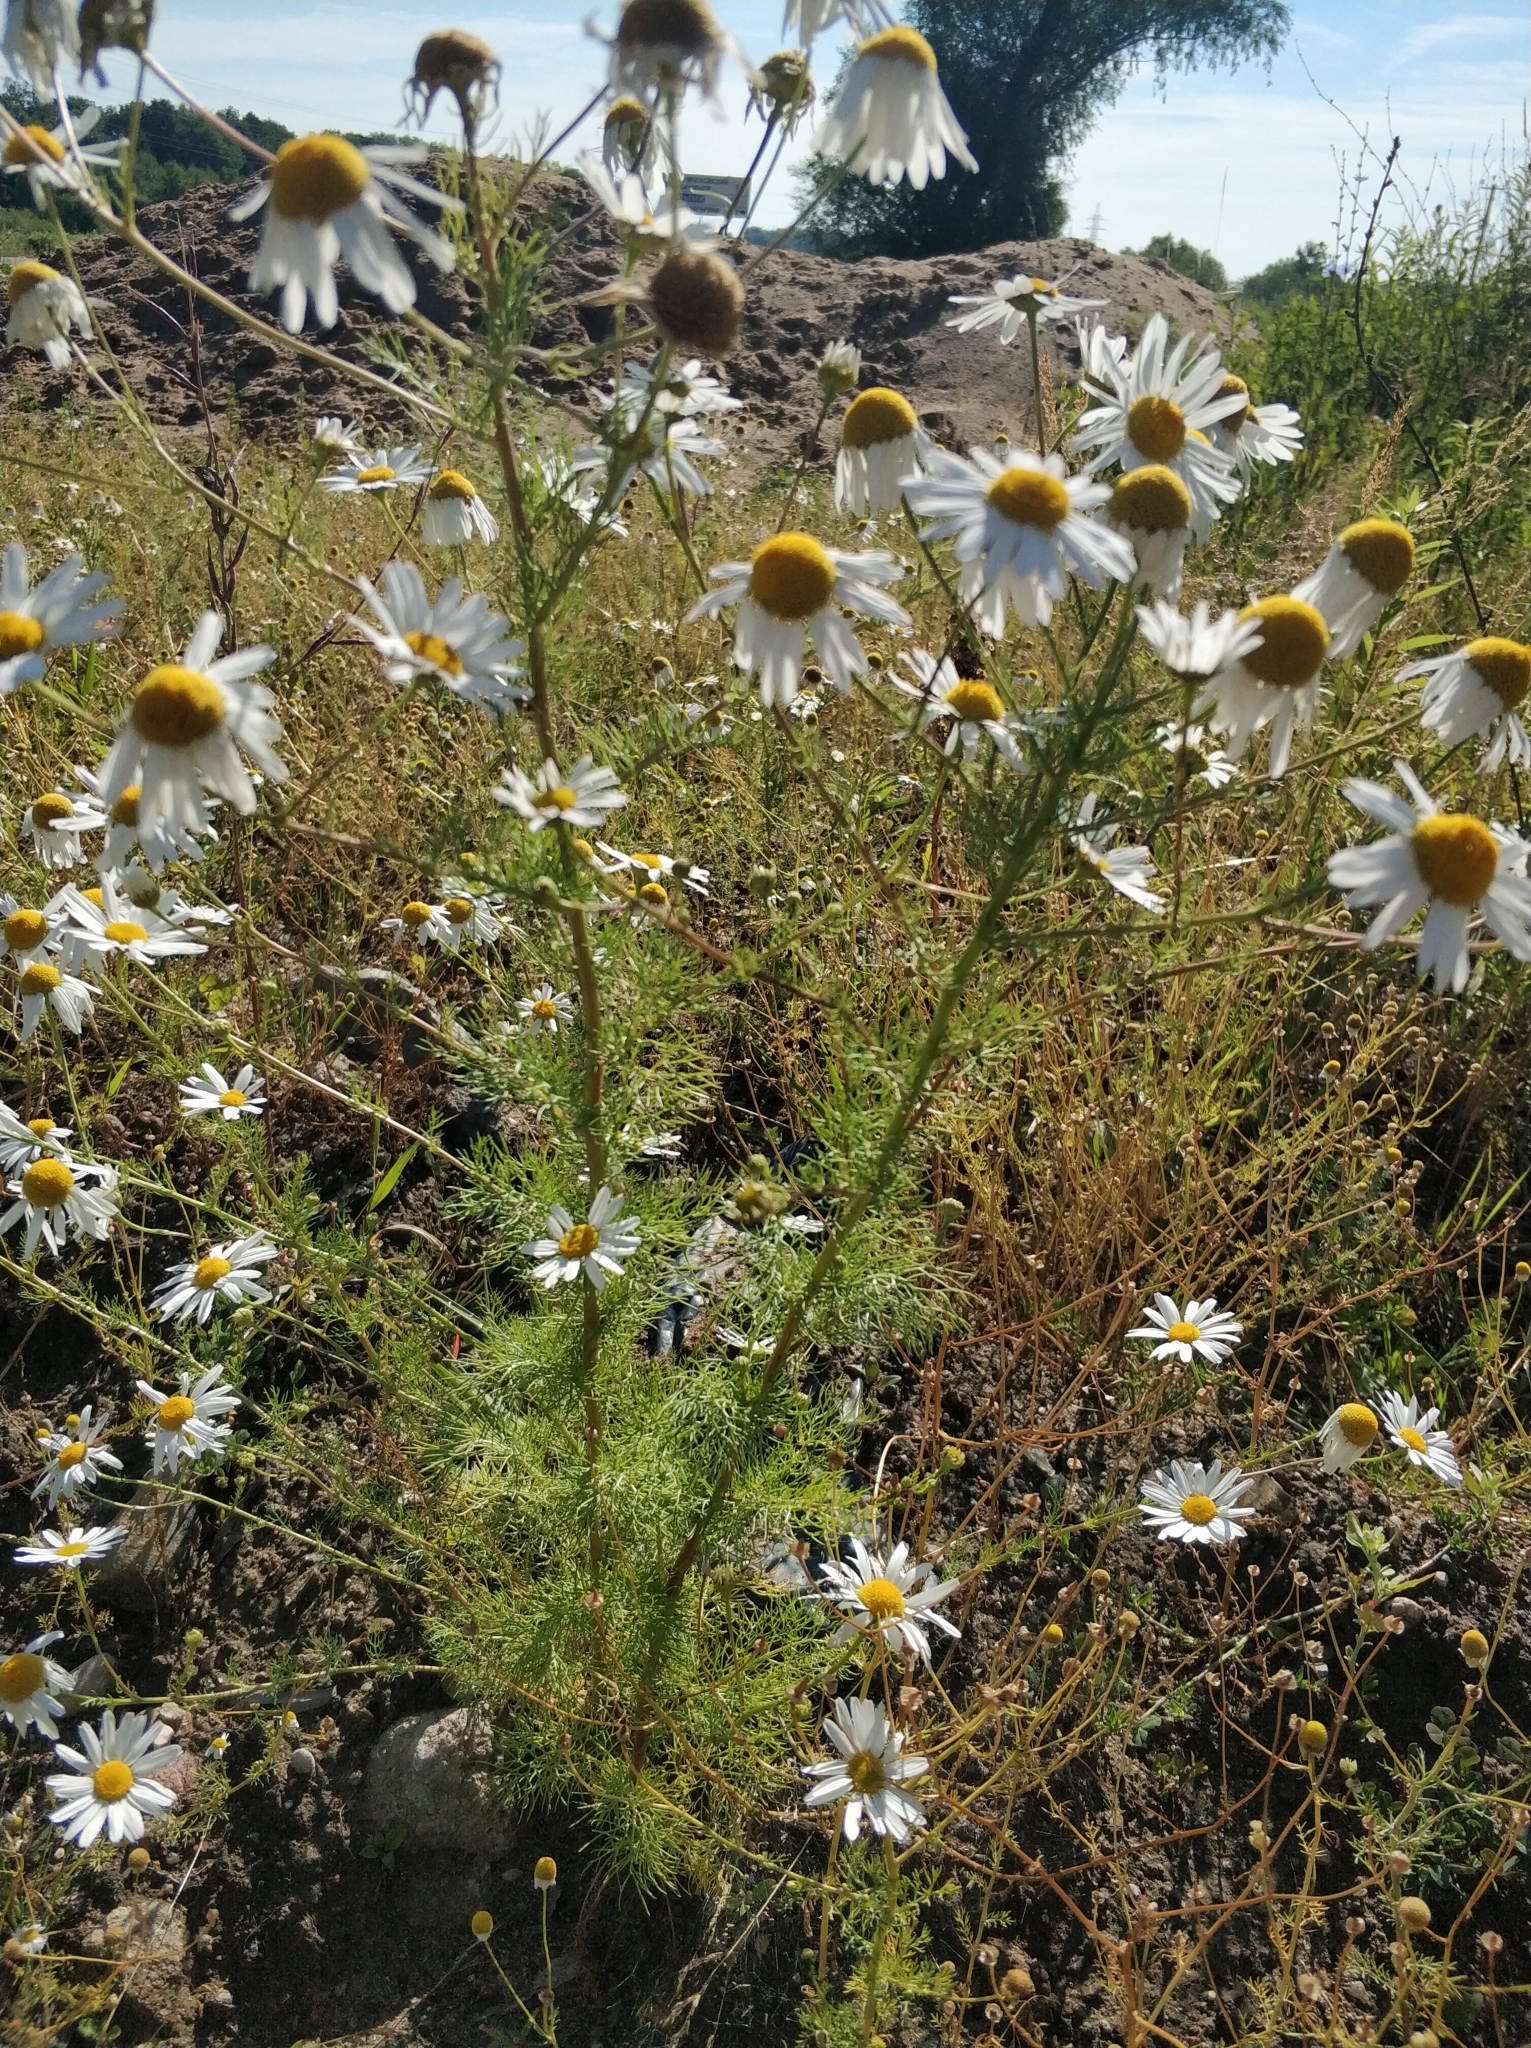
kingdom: Plantae
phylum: Tracheophyta
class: Magnoliopsida
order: Asterales
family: Asteraceae
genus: Tripleurospermum
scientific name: Tripleurospermum inodorum
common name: Scentless mayweed
